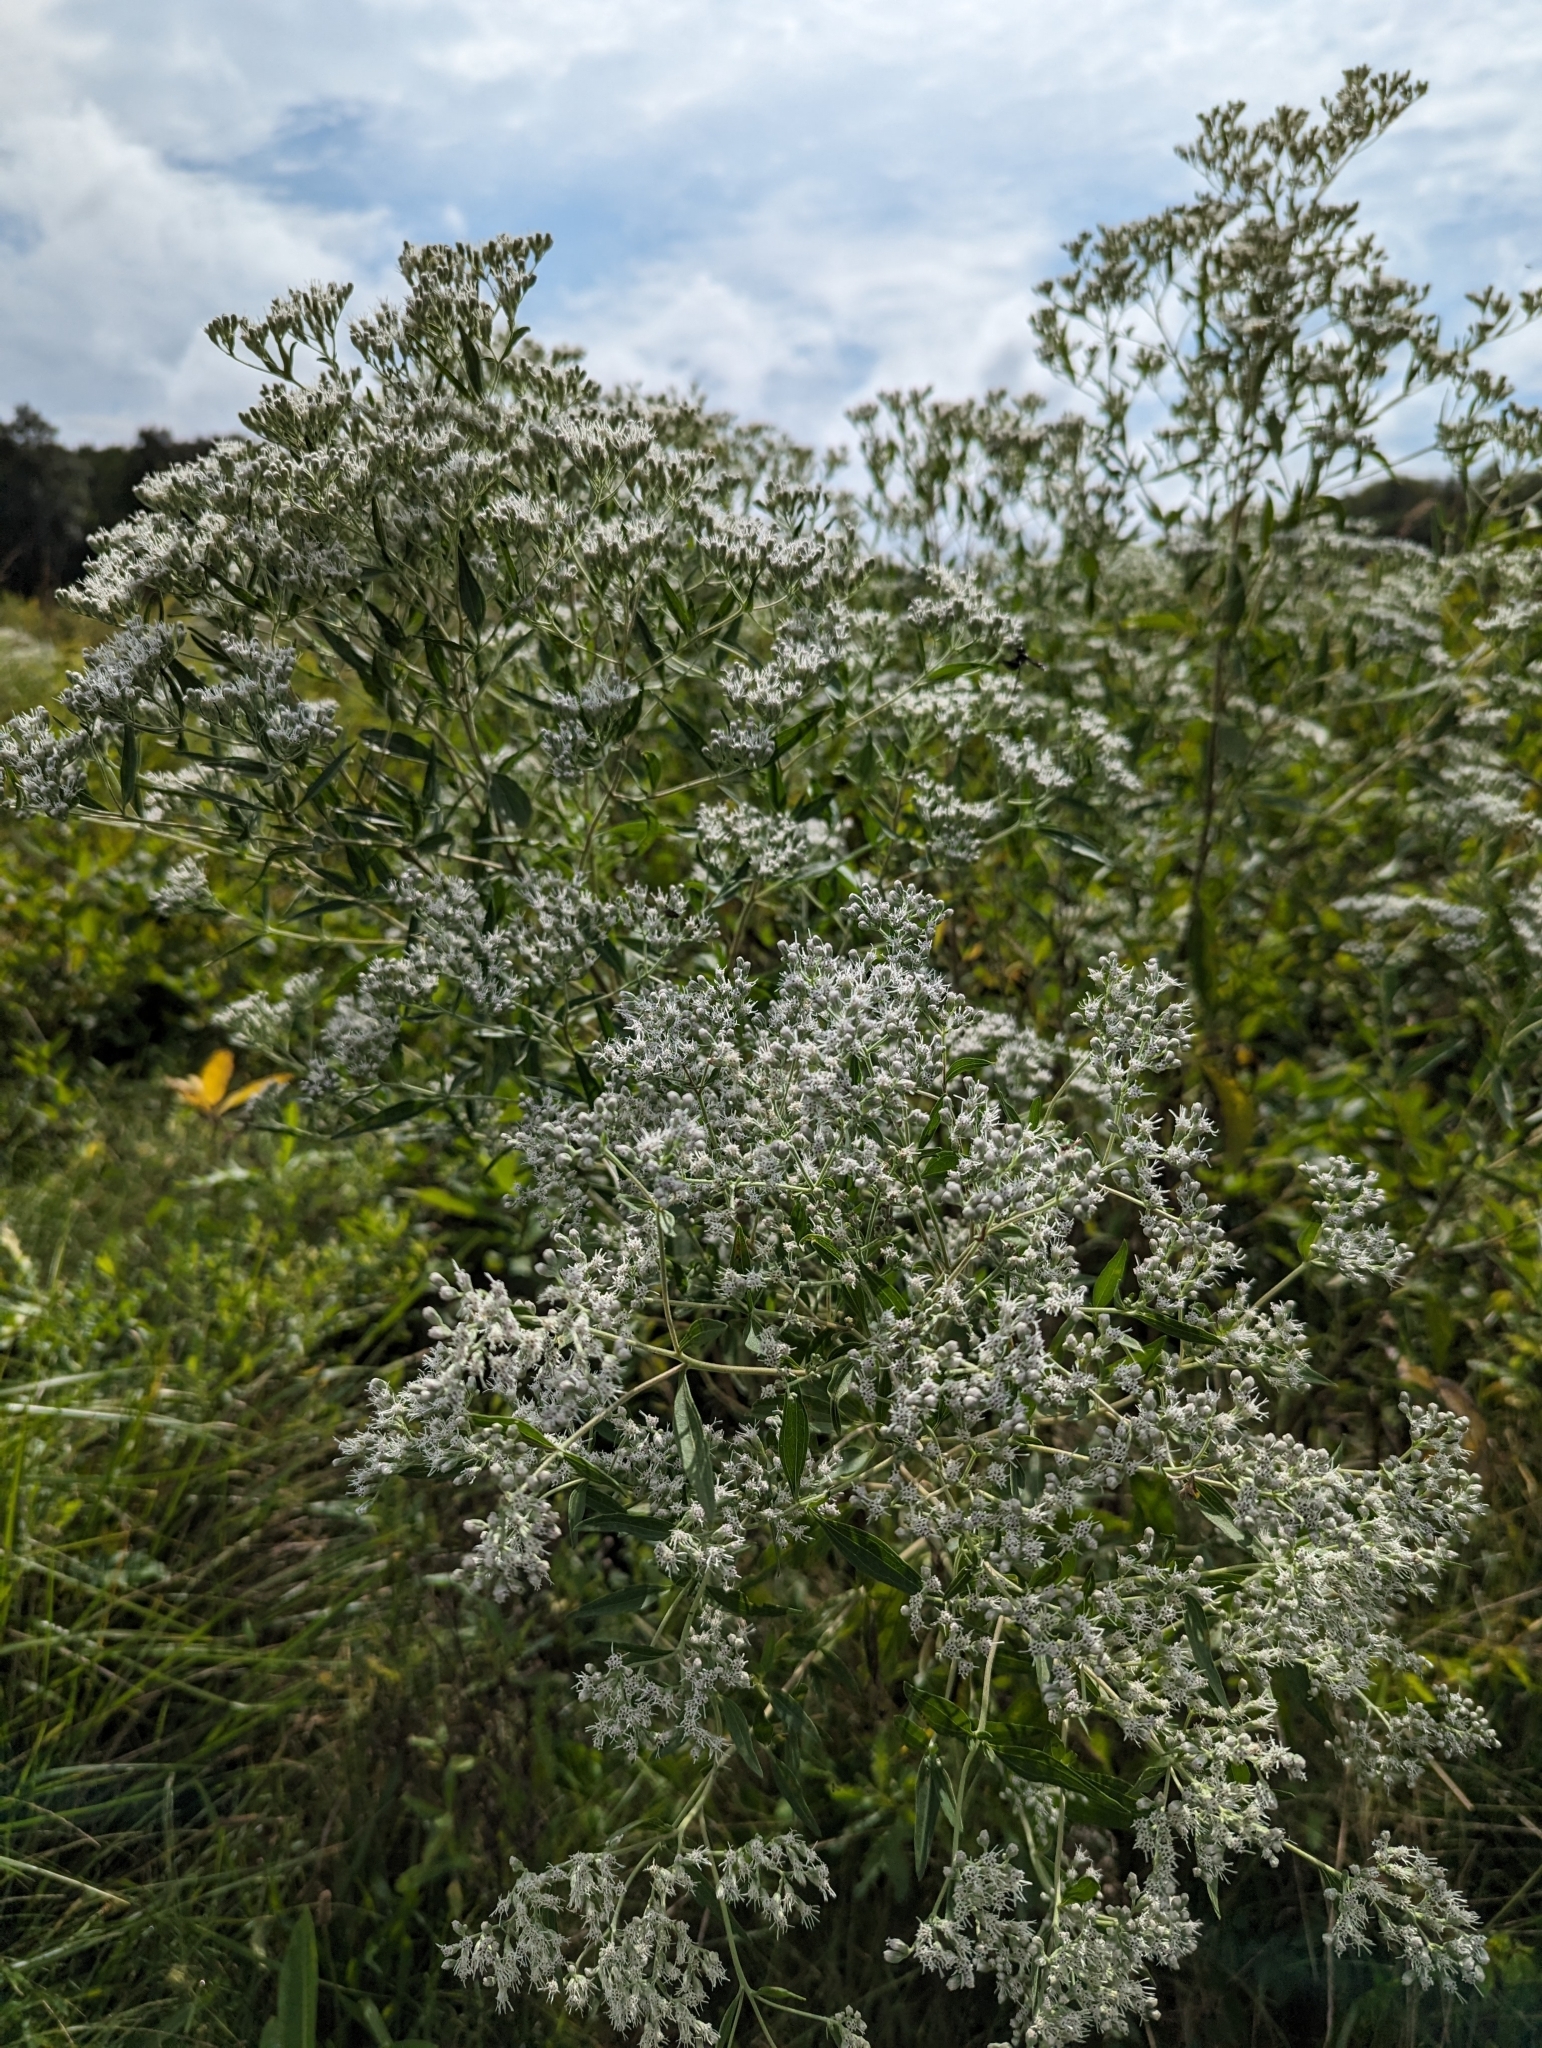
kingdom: Plantae
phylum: Tracheophyta
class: Magnoliopsida
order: Asterales
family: Asteraceae
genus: Eupatorium
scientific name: Eupatorium altissimum
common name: Tall thoroughwort
